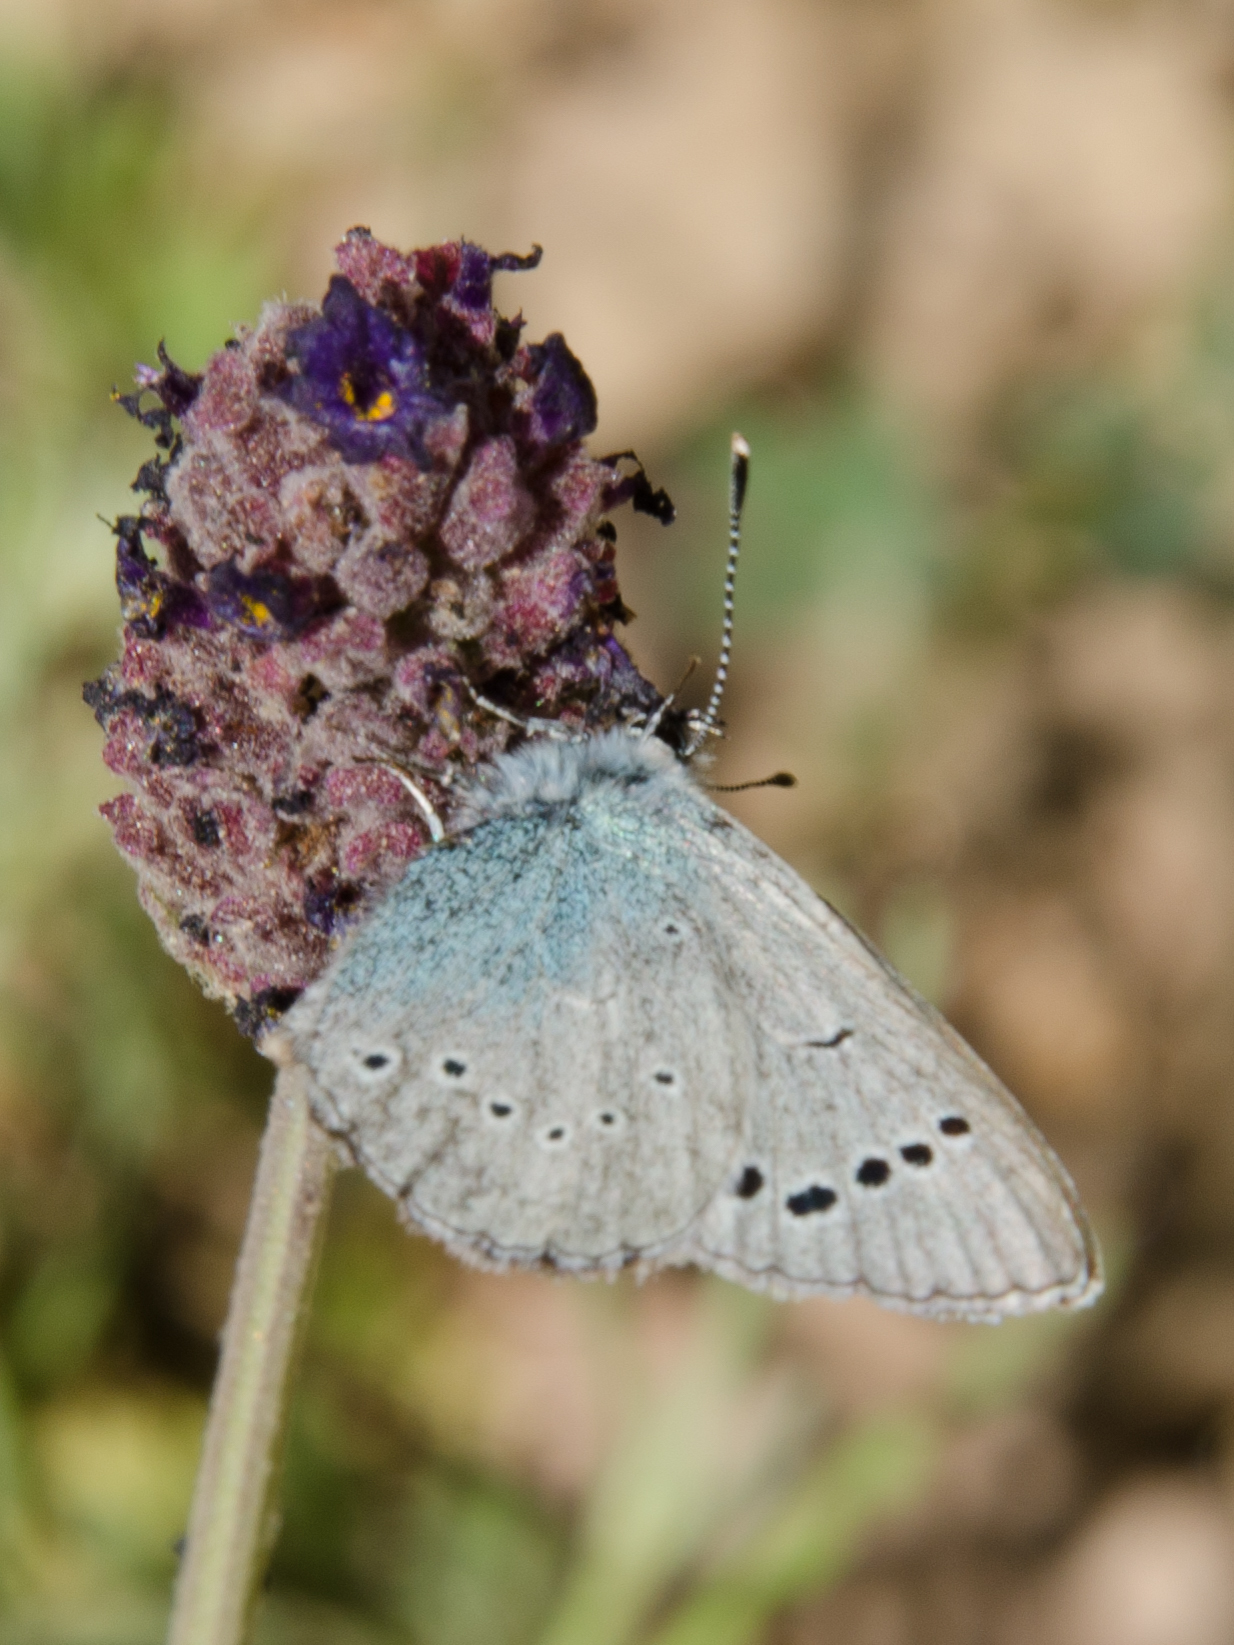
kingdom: Animalia
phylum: Arthropoda
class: Insecta
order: Lepidoptera
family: Lycaenidae
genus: Glaucopsyche
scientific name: Glaucopsyche alexis
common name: Green-underside blue
